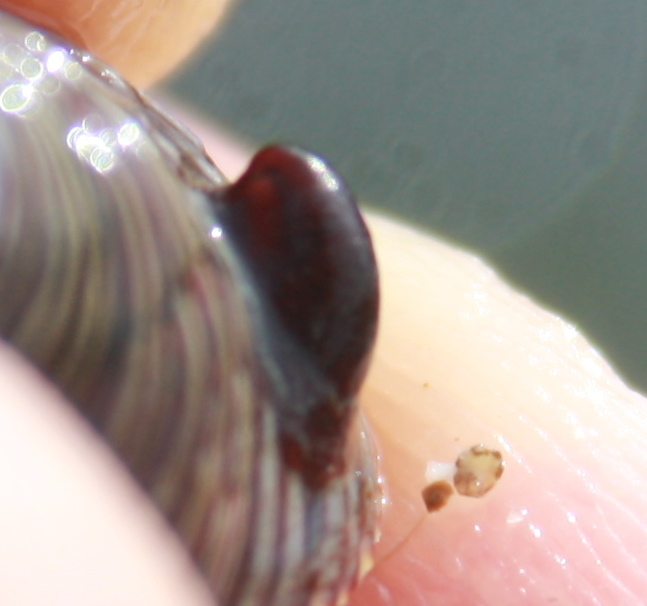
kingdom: Animalia
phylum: Mollusca
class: Gastropoda
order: Littorinimorpha
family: Calyptraeidae
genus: Crepidula
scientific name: Crepidula adunca
